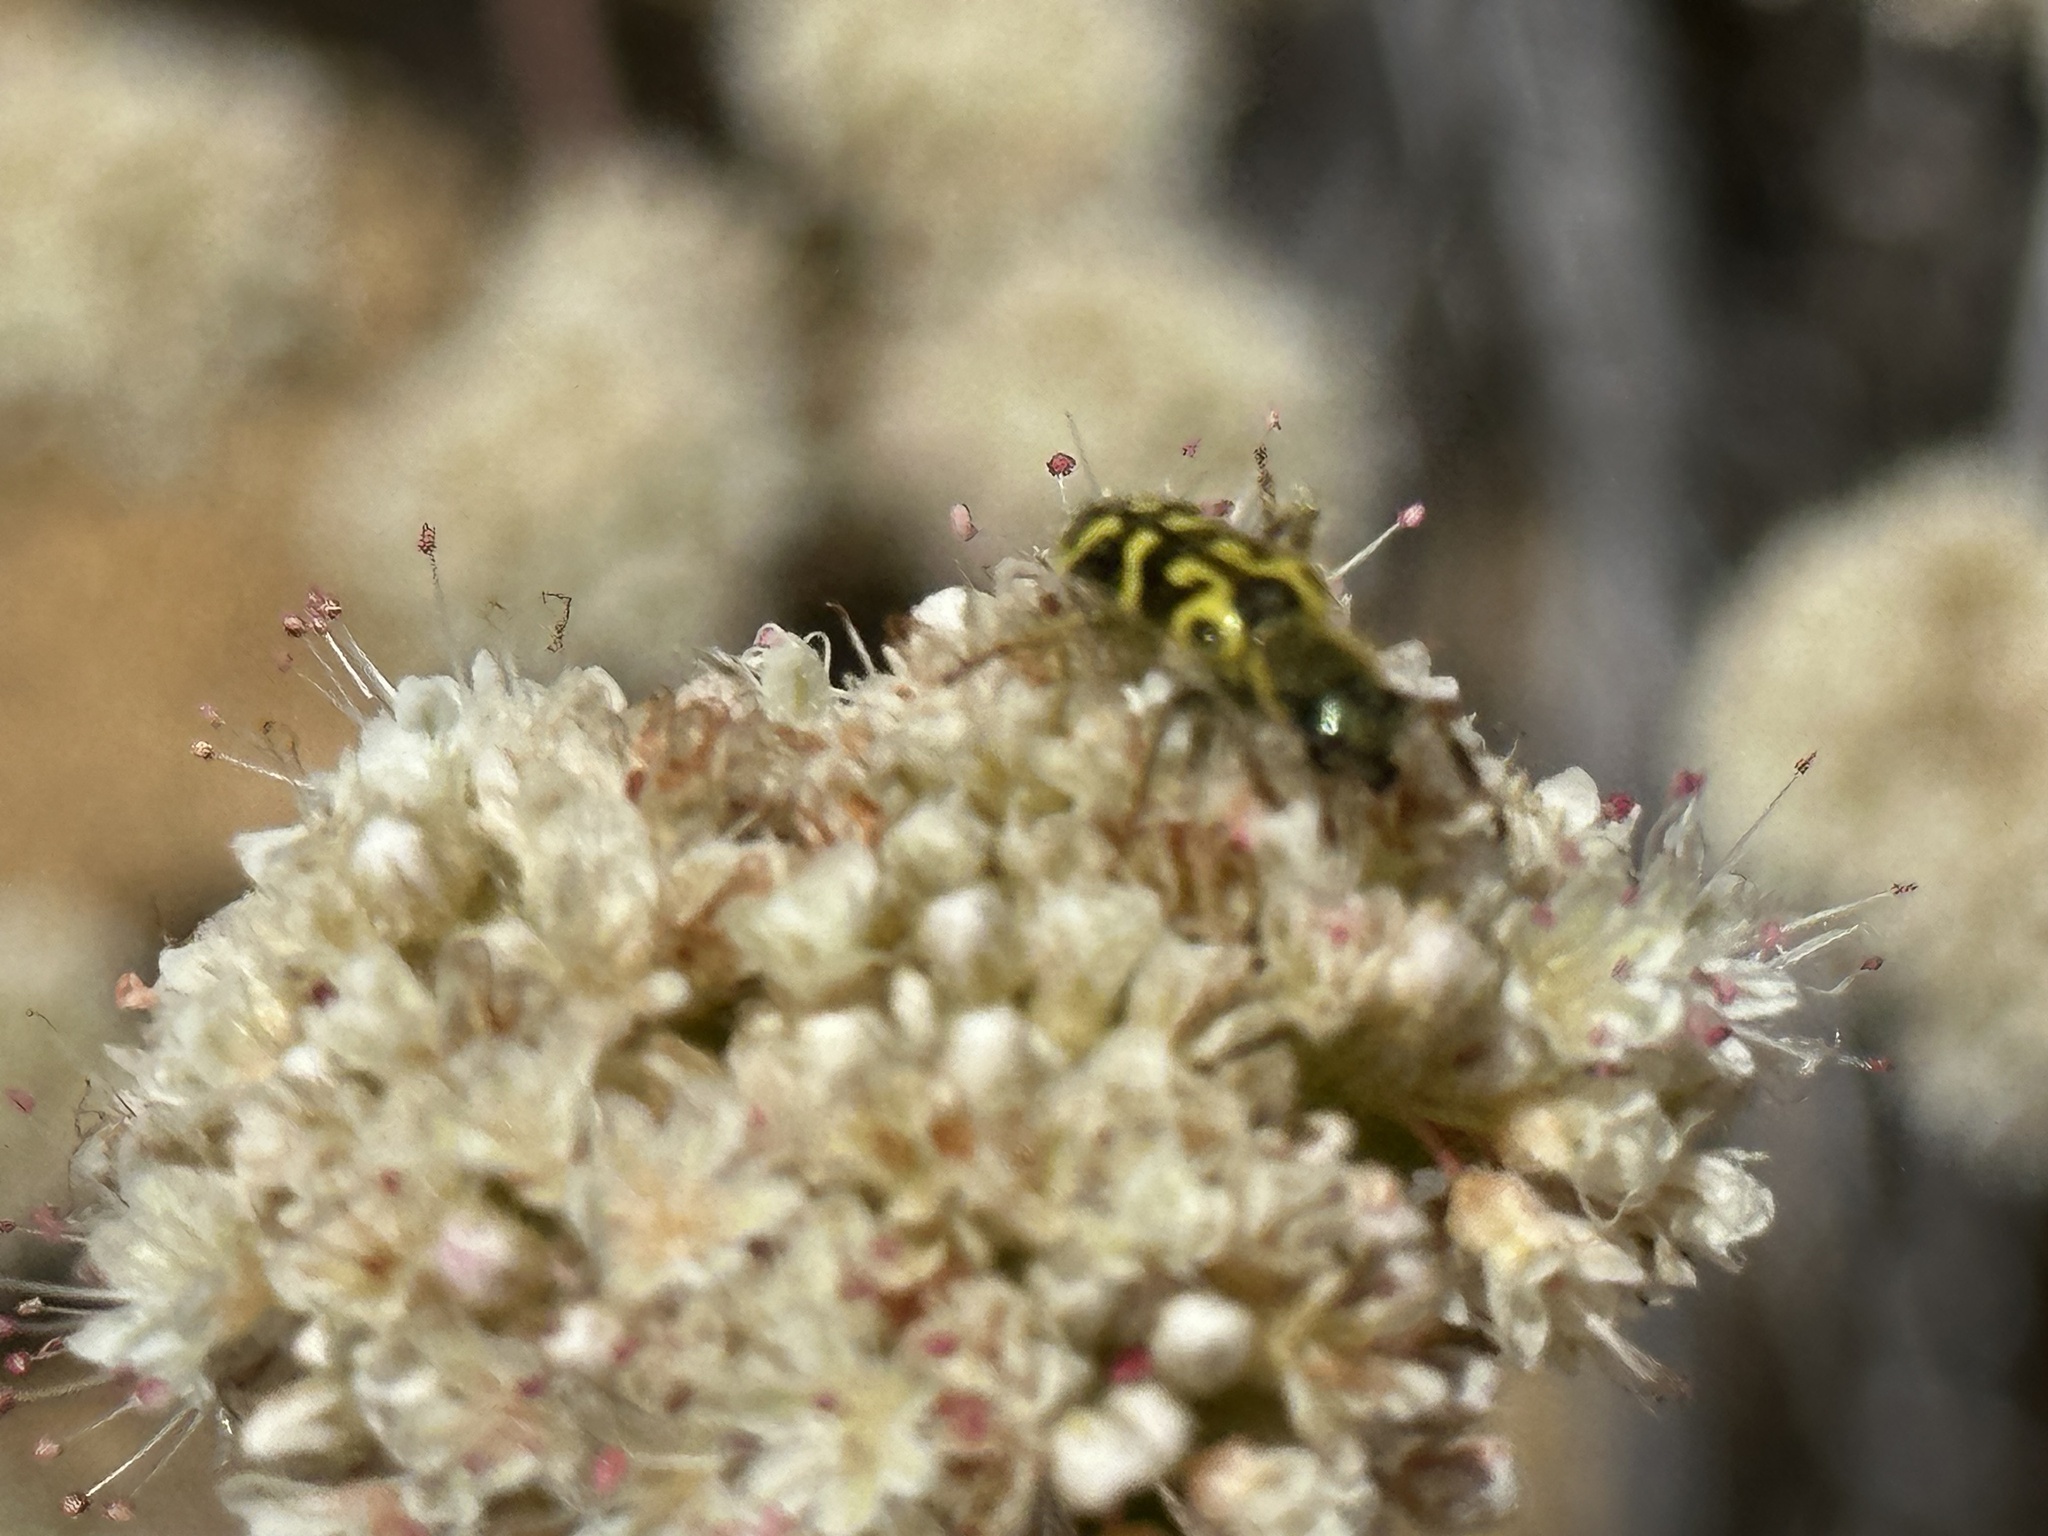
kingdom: Animalia
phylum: Arthropoda
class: Insecta
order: Coleoptera
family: Cleridae
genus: Trichodes
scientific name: Trichodes ornatus
